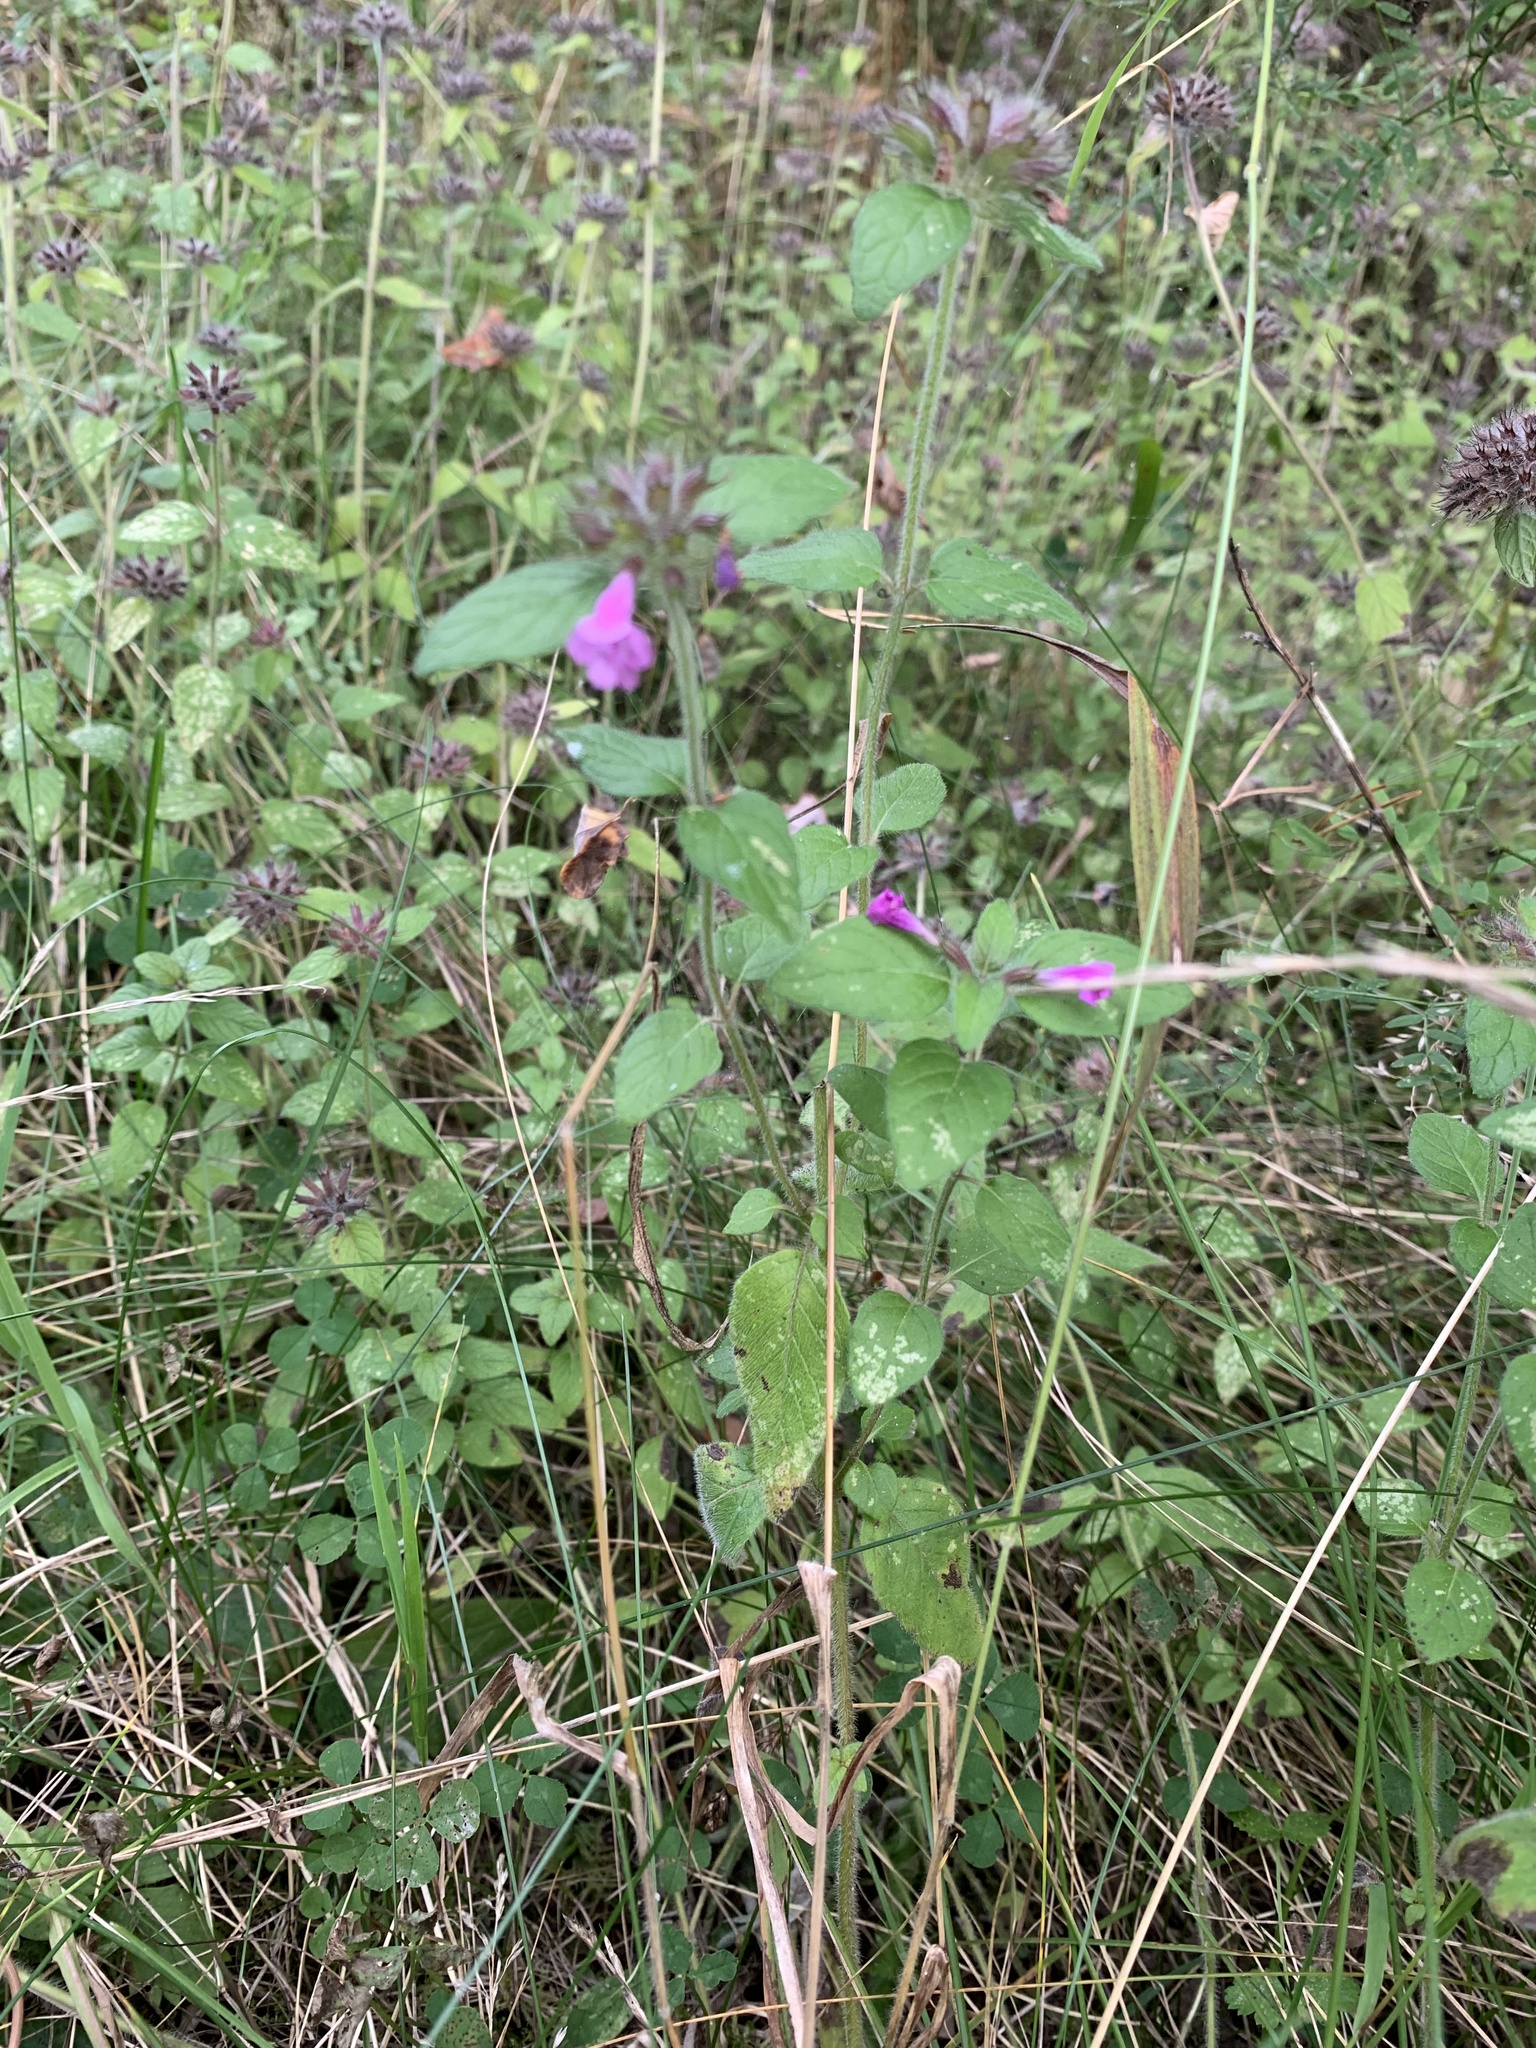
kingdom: Plantae
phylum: Tracheophyta
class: Magnoliopsida
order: Lamiales
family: Lamiaceae
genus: Clinopodium
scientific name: Clinopodium vulgare
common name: Wild basil
